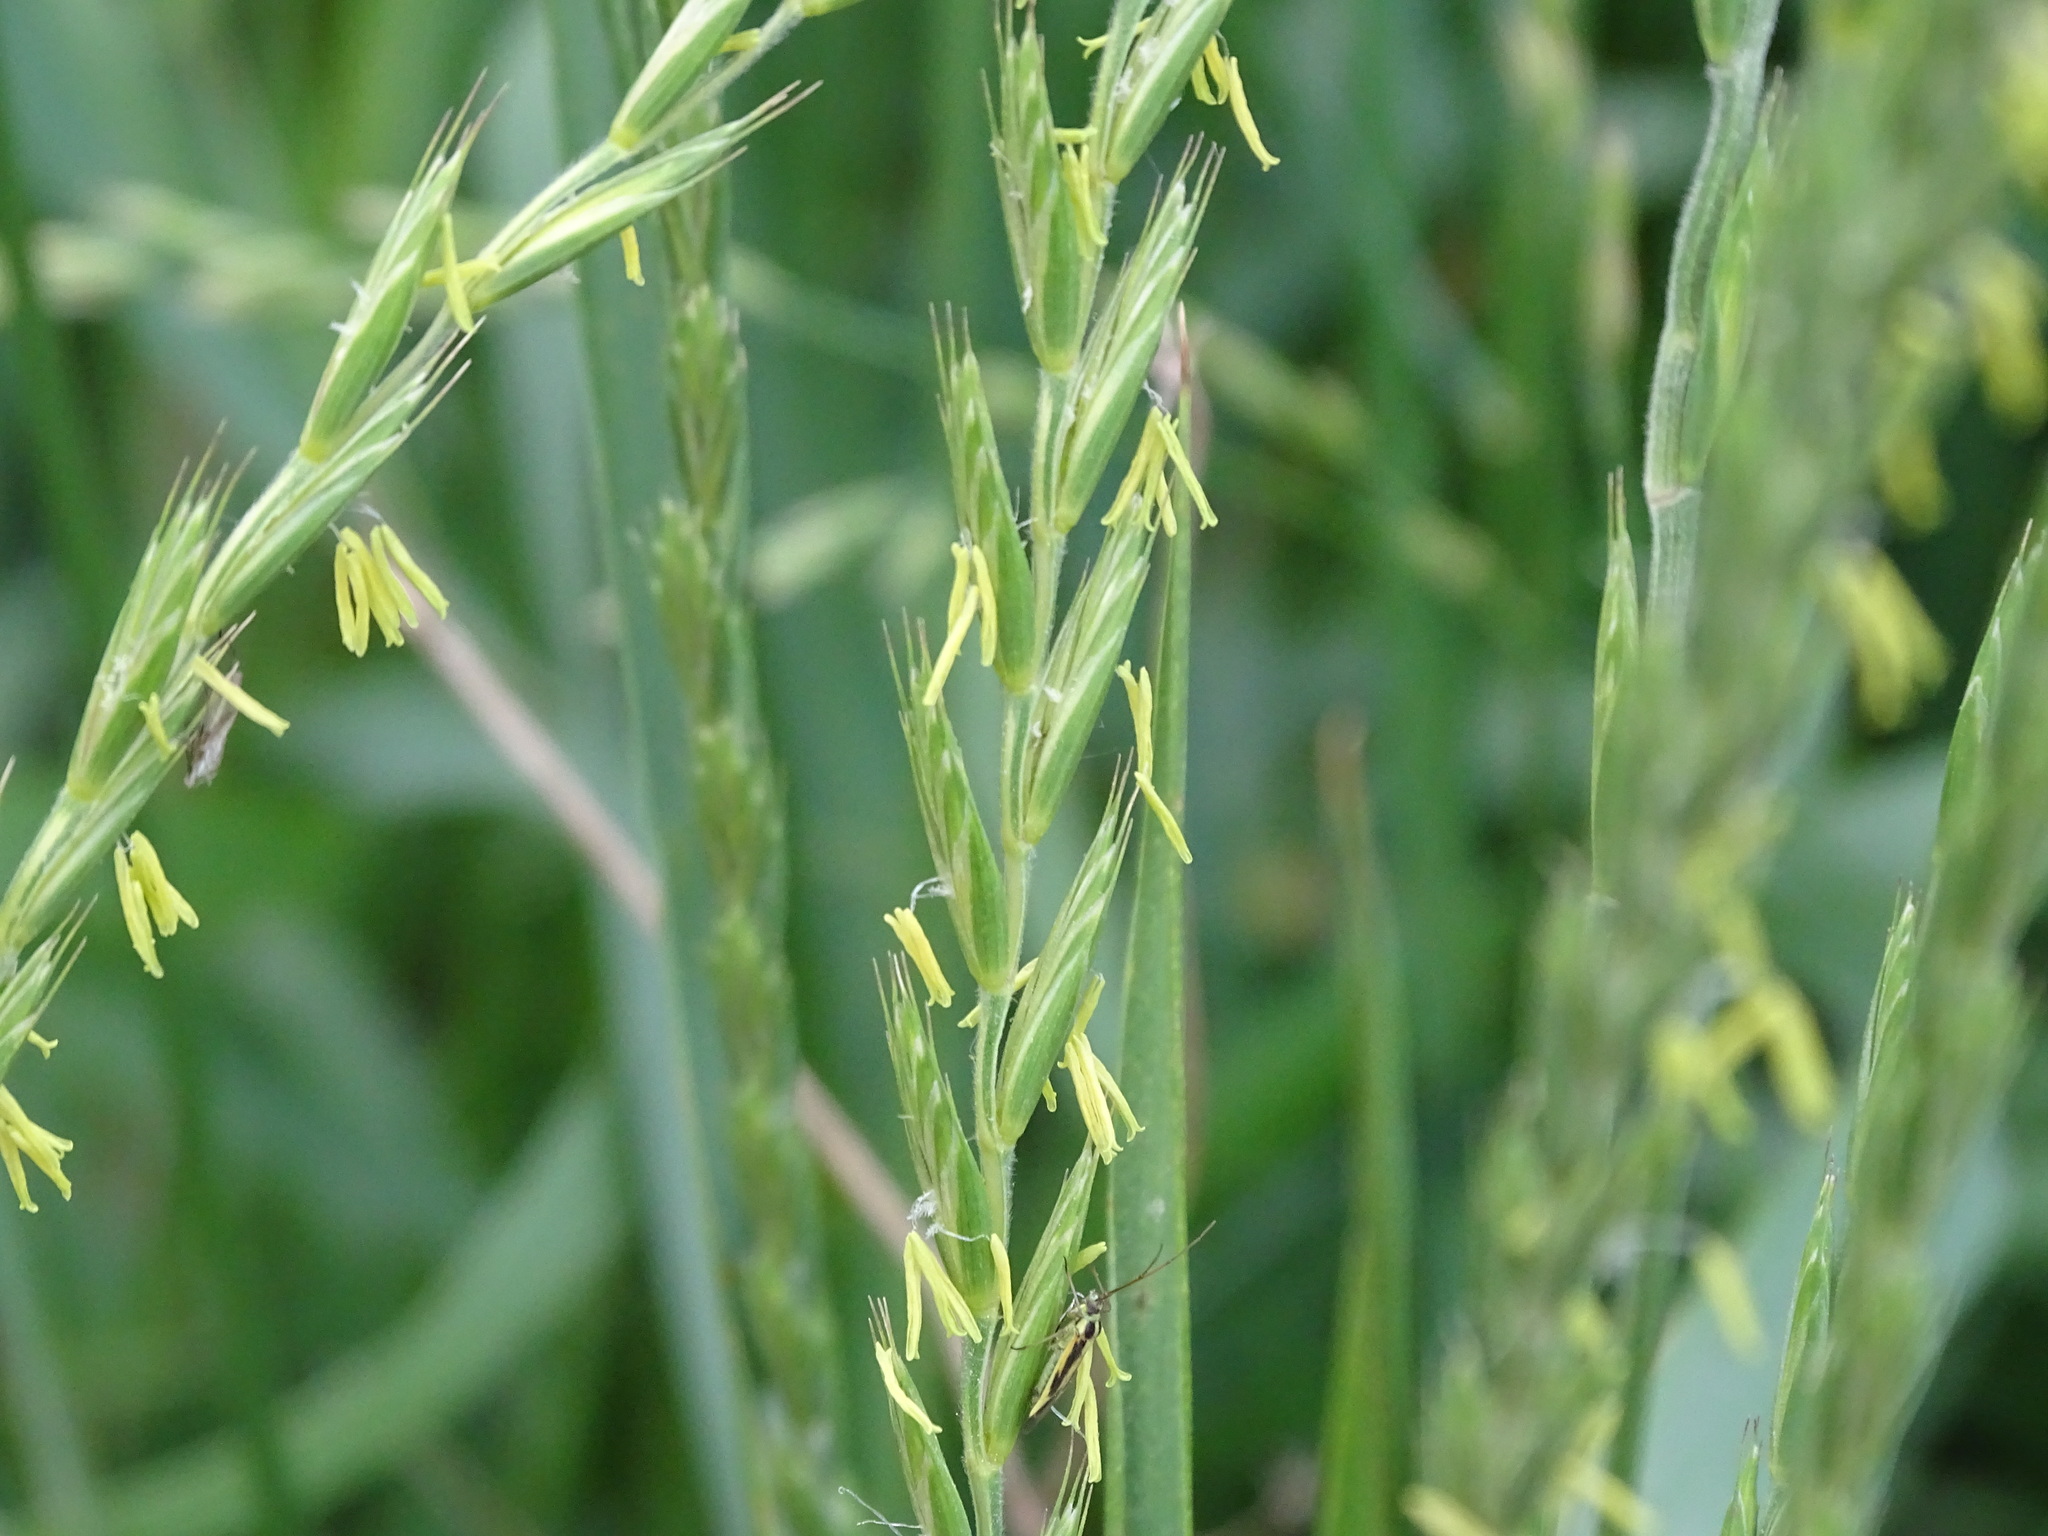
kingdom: Plantae
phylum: Tracheophyta
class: Liliopsida
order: Poales
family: Poaceae
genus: Elymus
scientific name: Elymus repens
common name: Quackgrass
